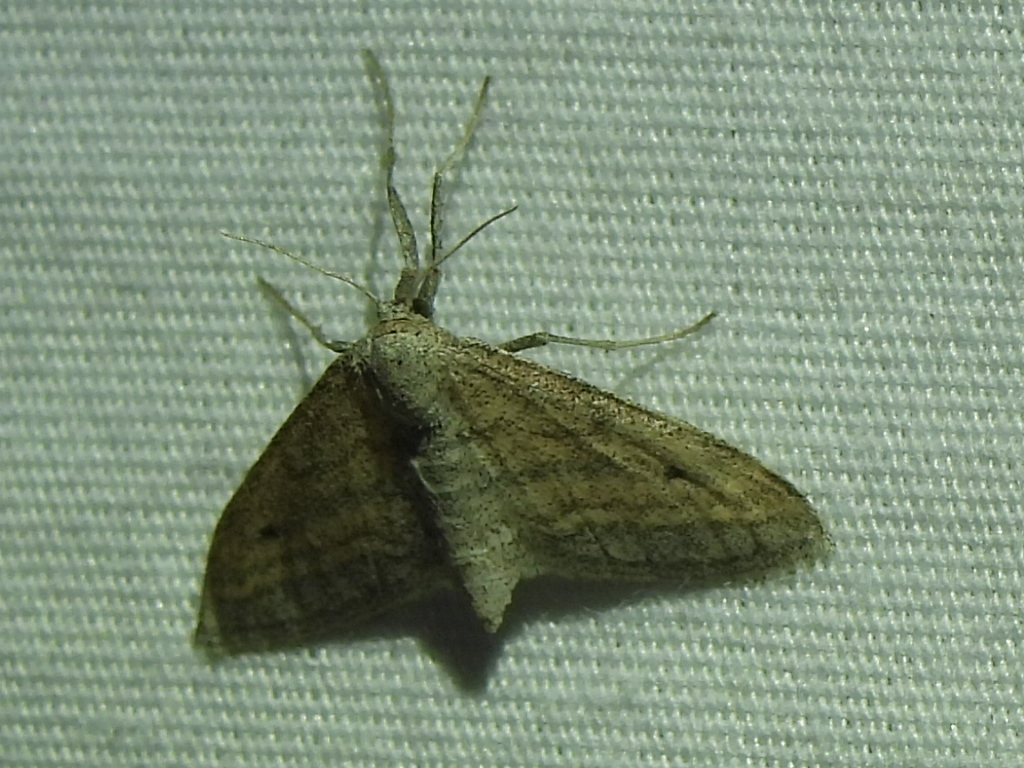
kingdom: Animalia
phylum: Arthropoda
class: Insecta
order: Lepidoptera
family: Geometridae
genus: Lobocleta
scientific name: Lobocleta plemyraria
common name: Straight-lined wave
